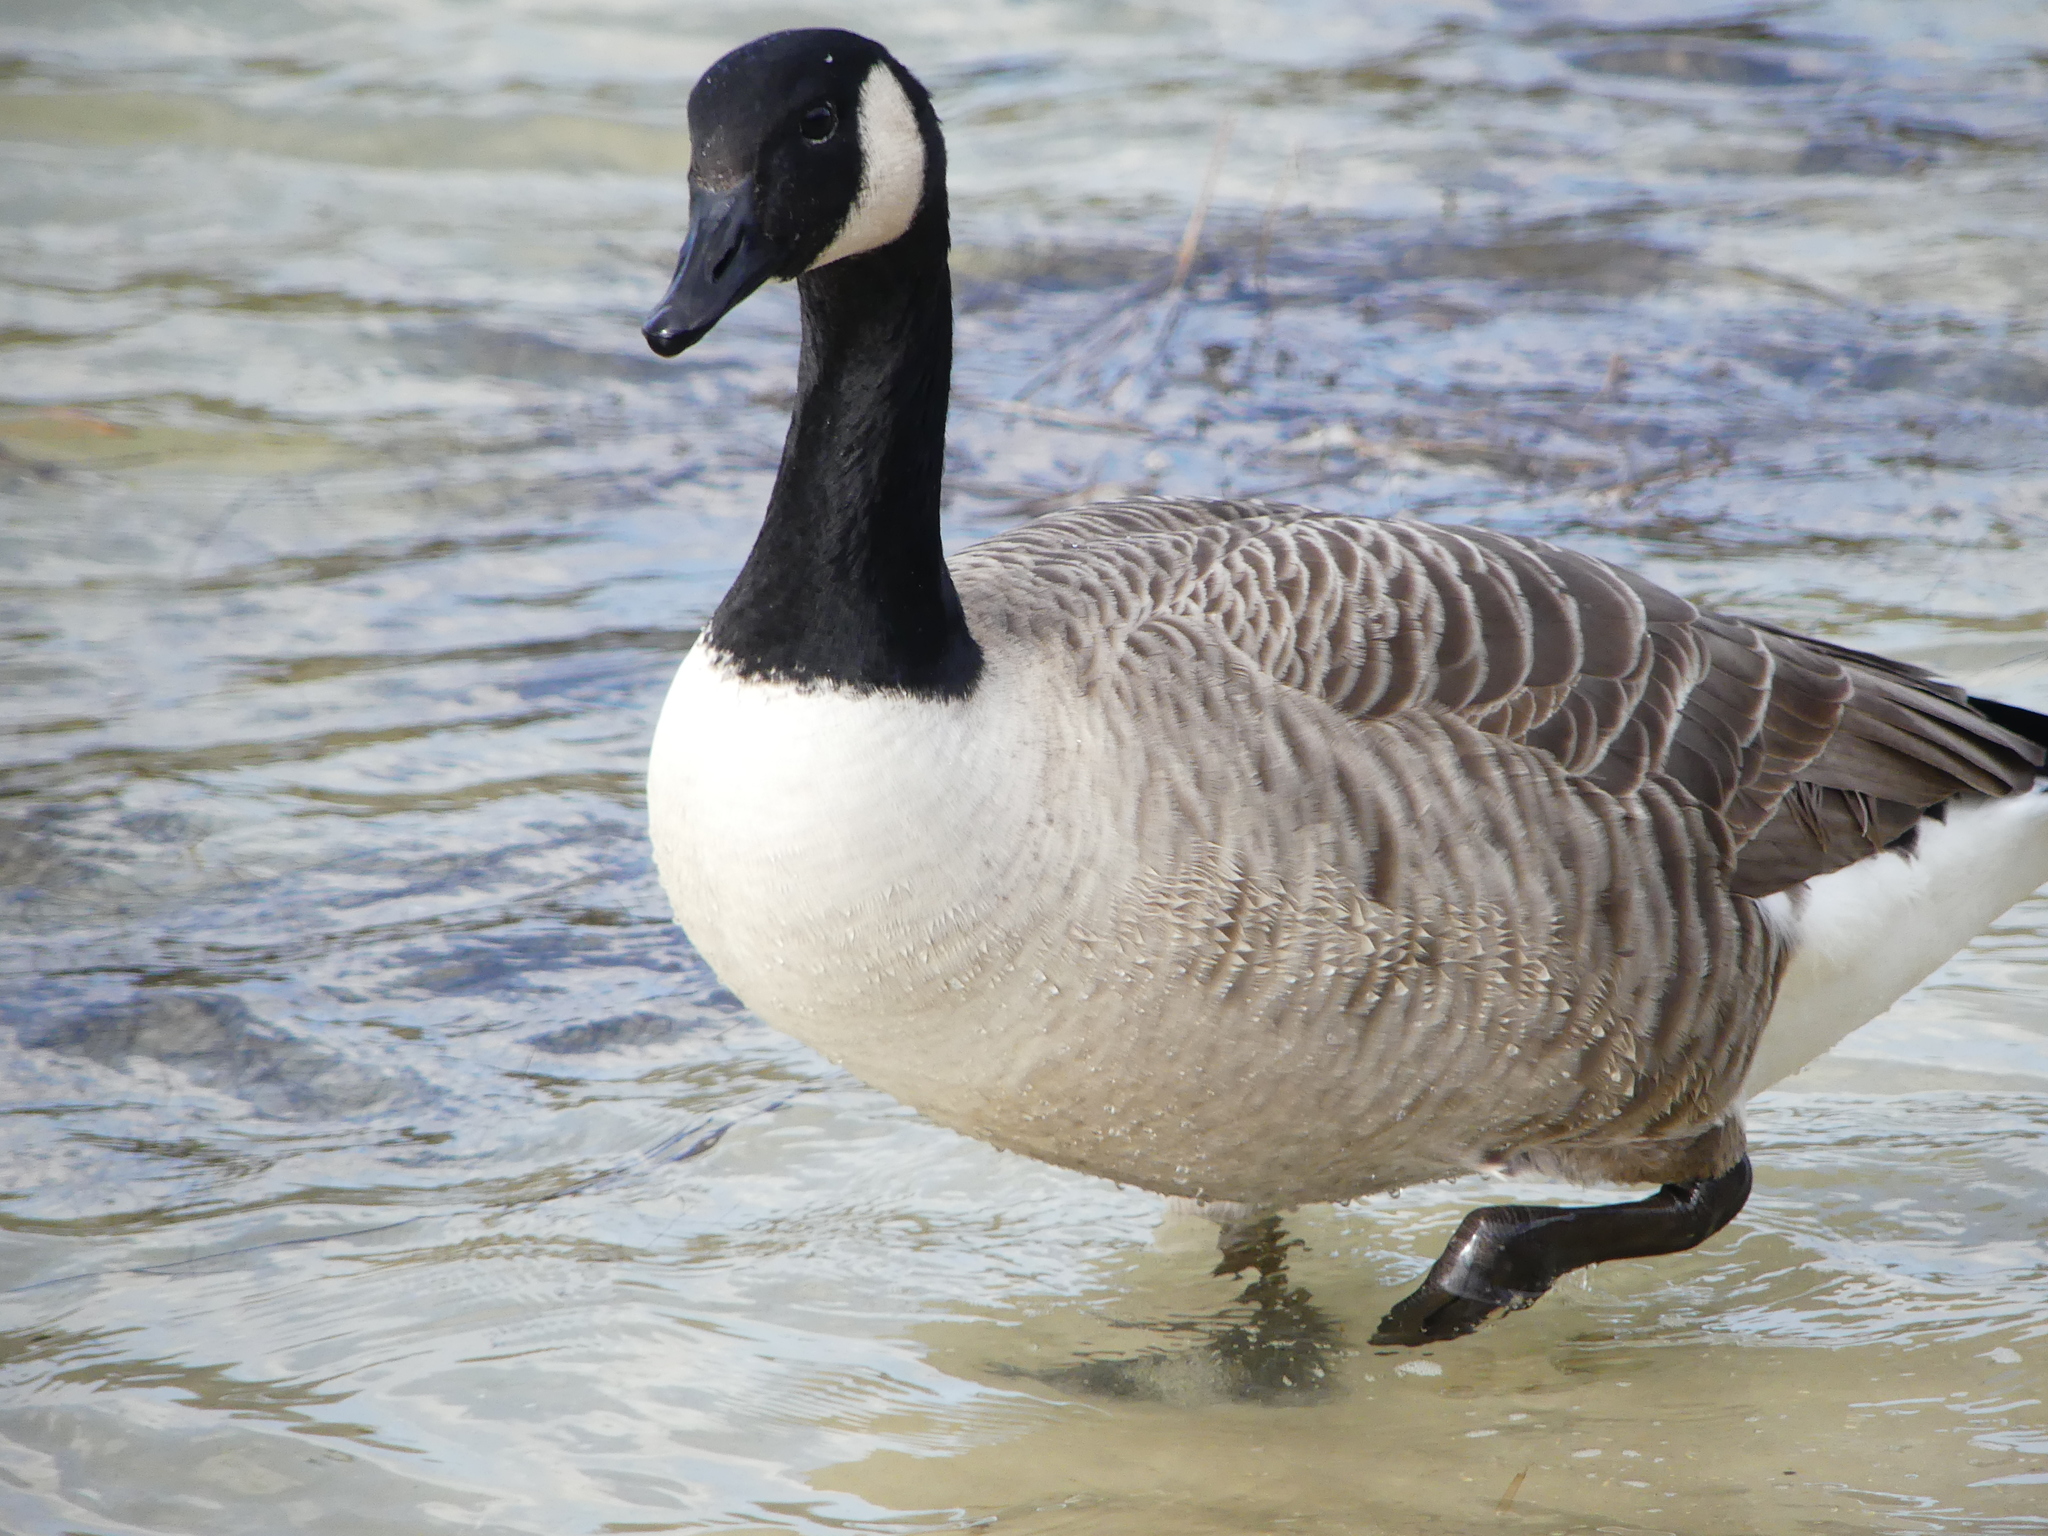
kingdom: Animalia
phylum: Chordata
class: Aves
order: Anseriformes
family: Anatidae
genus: Branta
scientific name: Branta canadensis
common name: Canada goose
